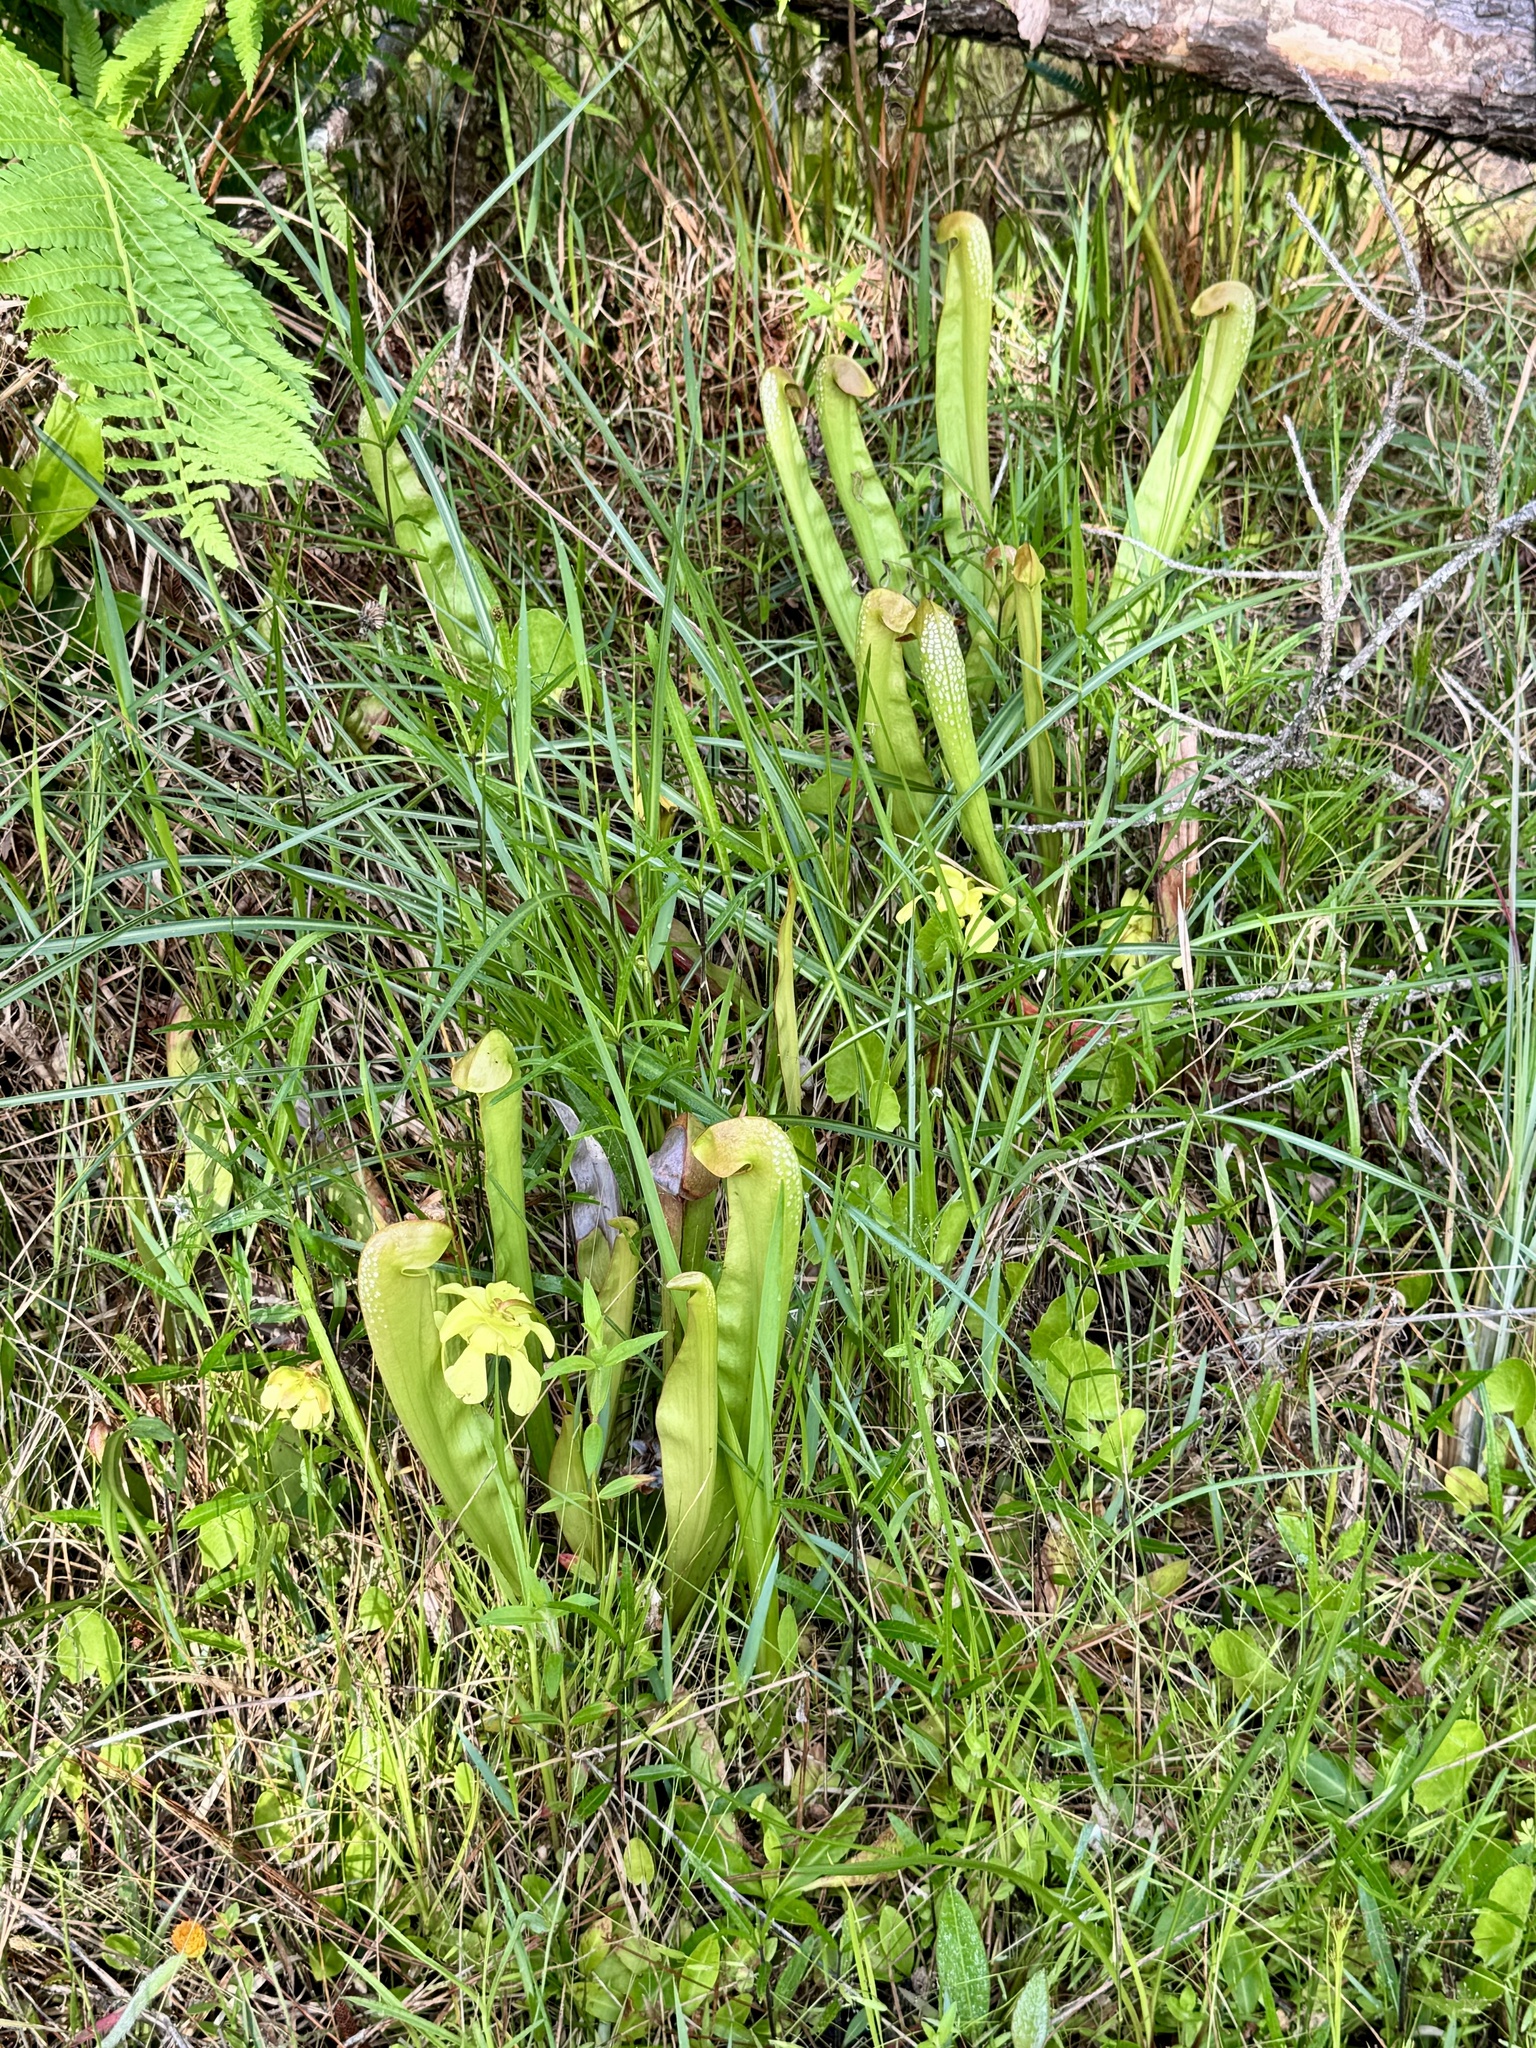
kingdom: Plantae
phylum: Tracheophyta
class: Magnoliopsida
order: Ericales
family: Sarraceniaceae
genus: Sarracenia
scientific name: Sarracenia minor
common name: Rainhat-trumpet
